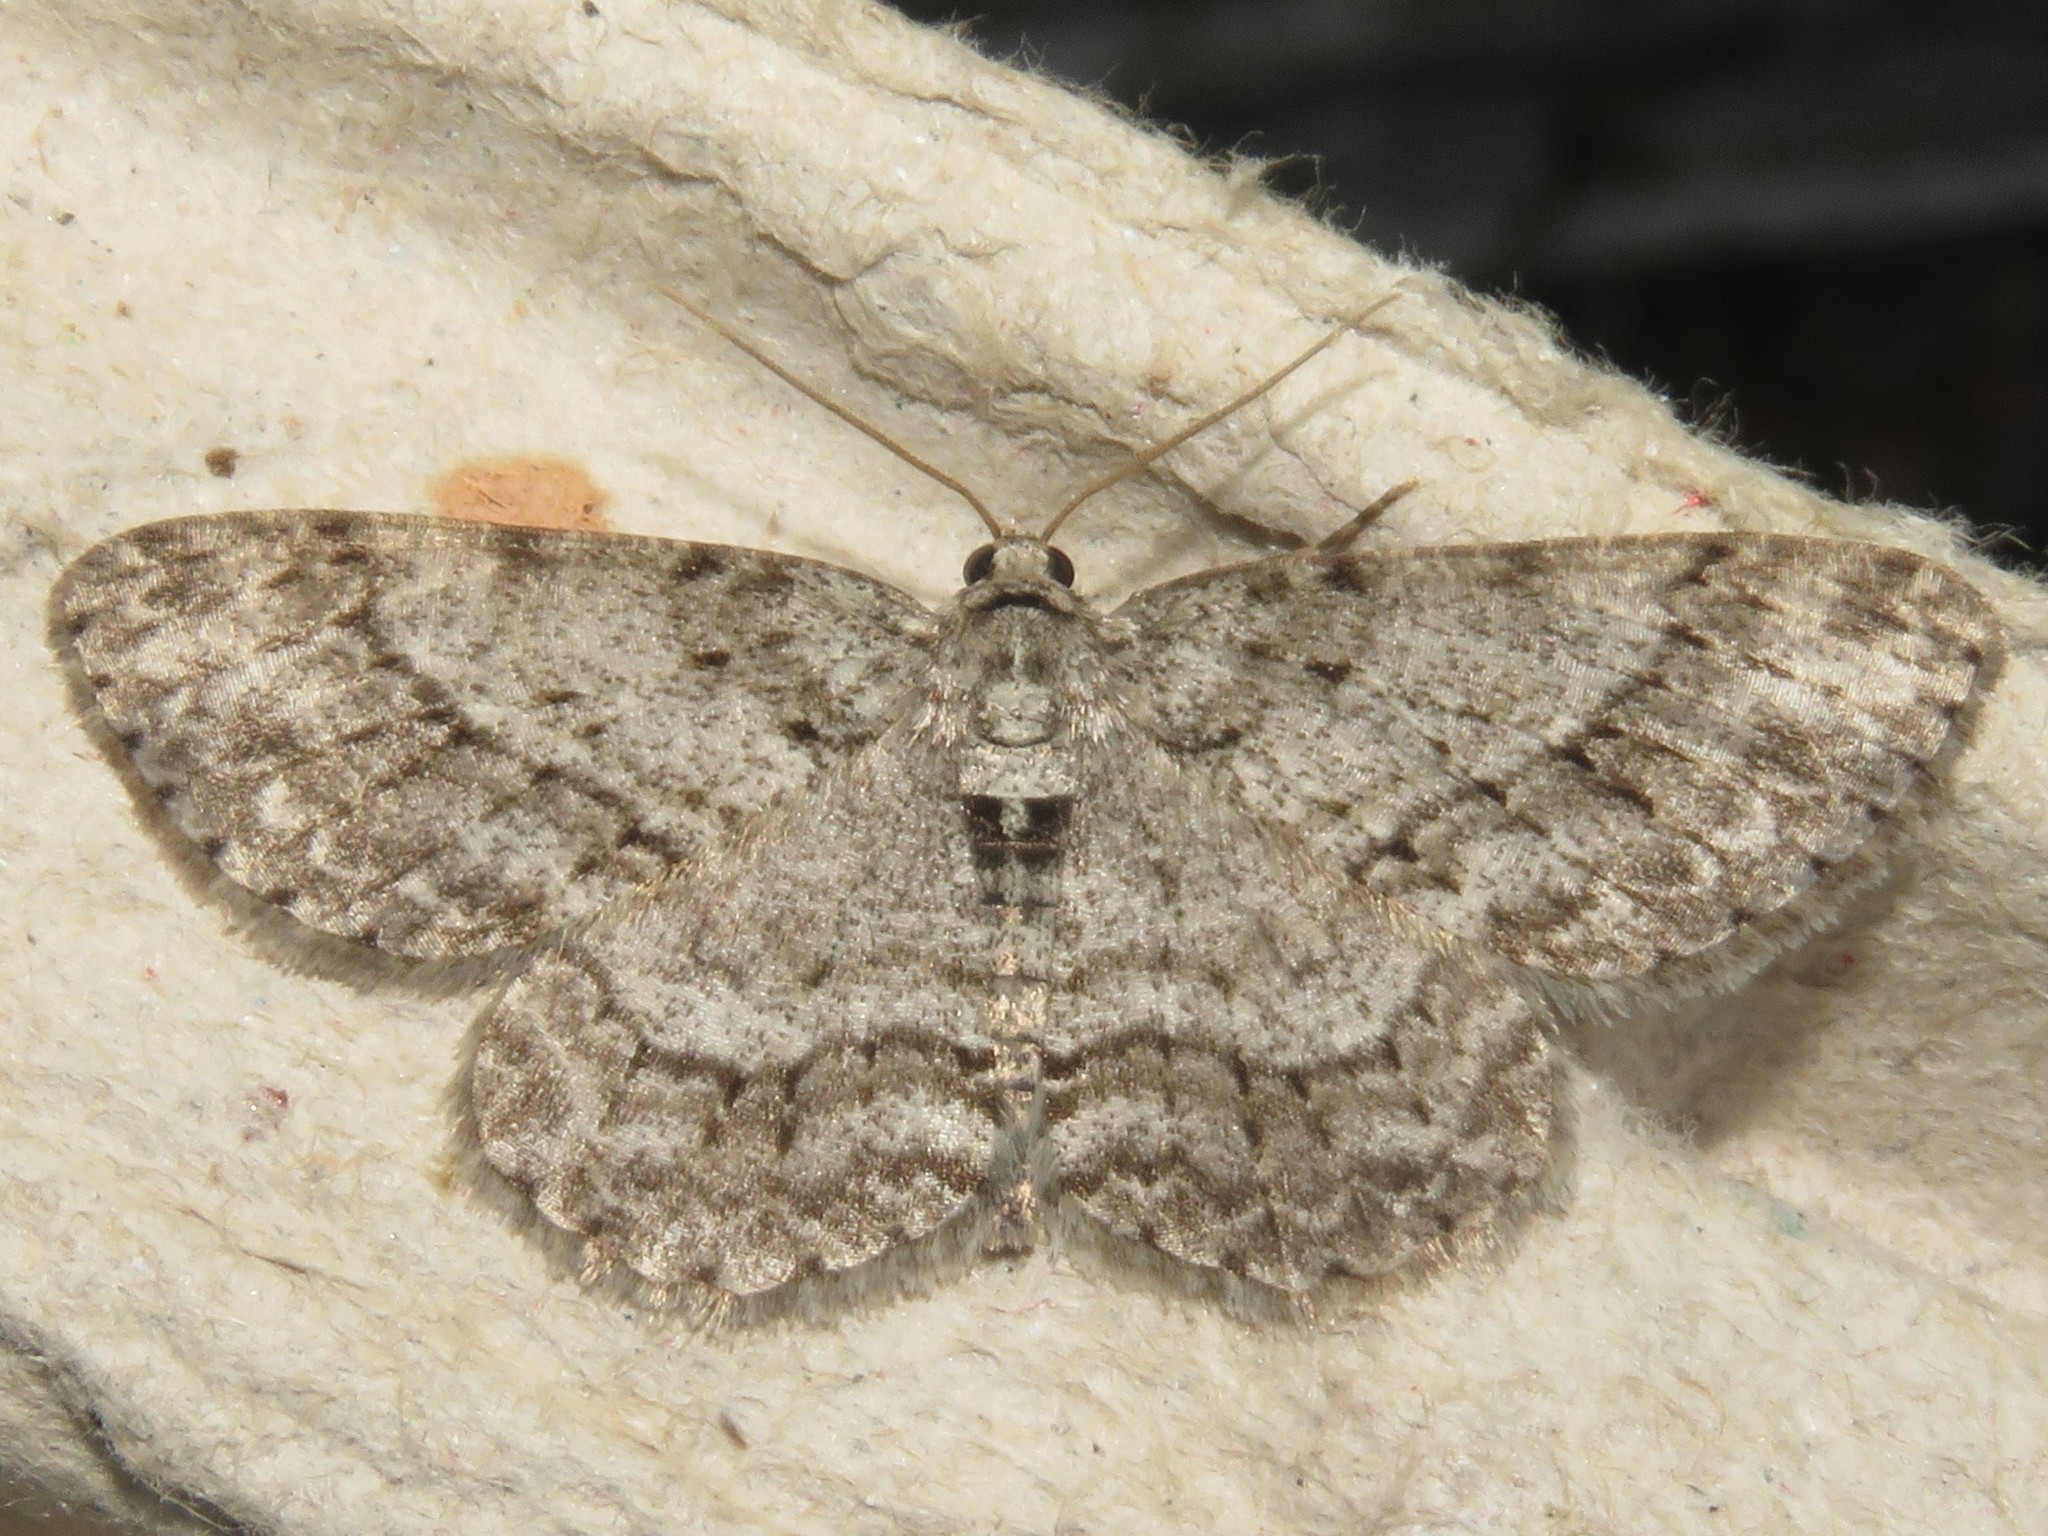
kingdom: Animalia
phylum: Arthropoda
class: Insecta
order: Lepidoptera
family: Geometridae
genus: Ectropis
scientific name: Ectropis crepuscularia
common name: Engrailed
